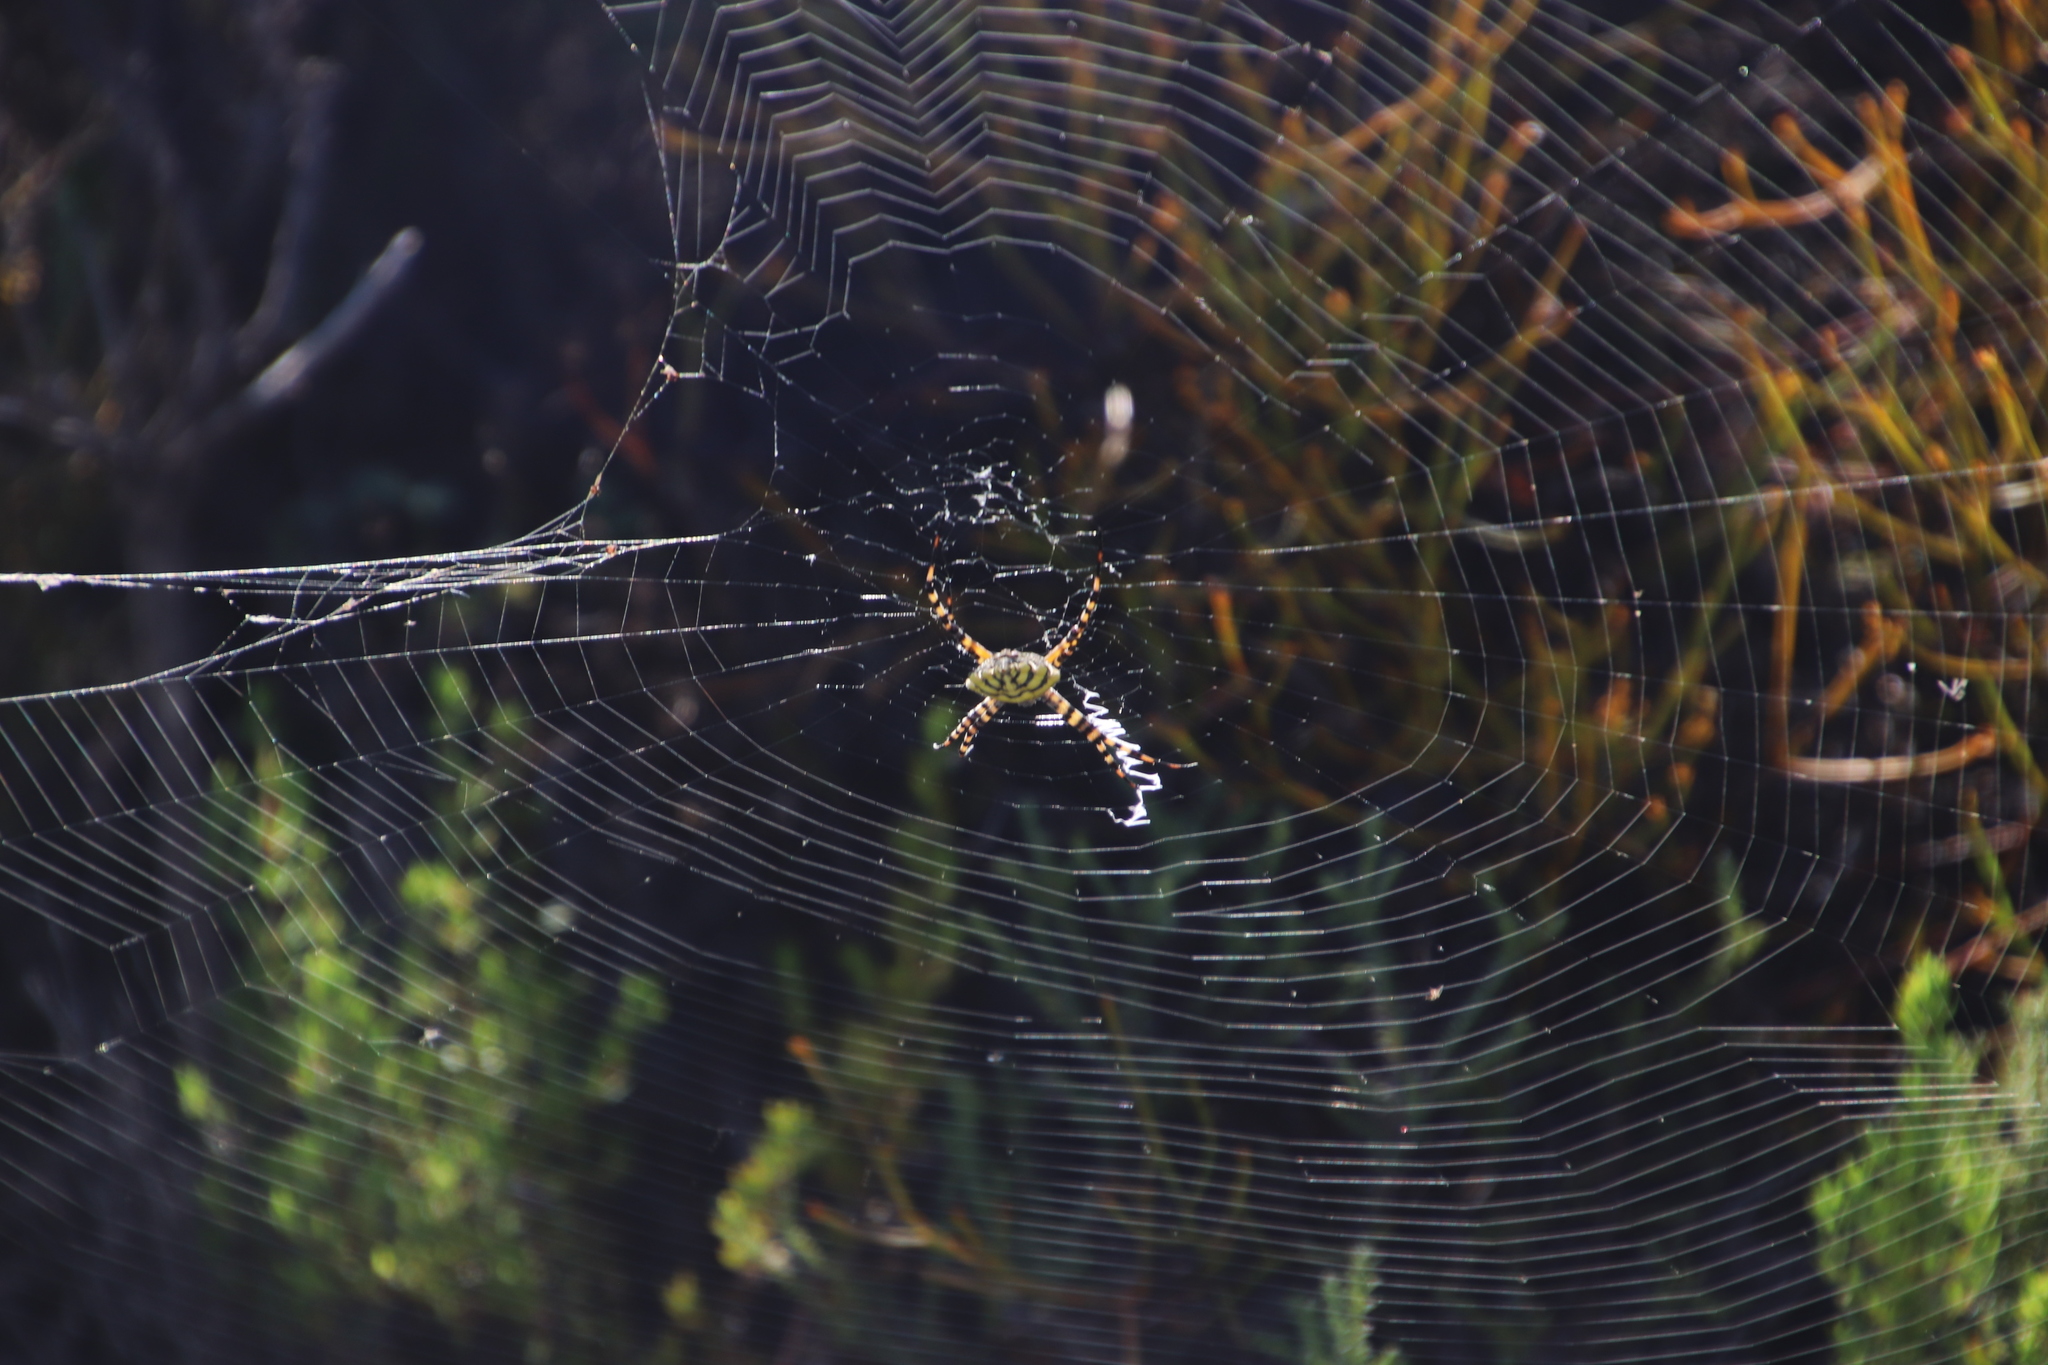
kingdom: Animalia
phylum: Arthropoda
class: Arachnida
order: Araneae
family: Araneidae
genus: Argiope
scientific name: Argiope australis
